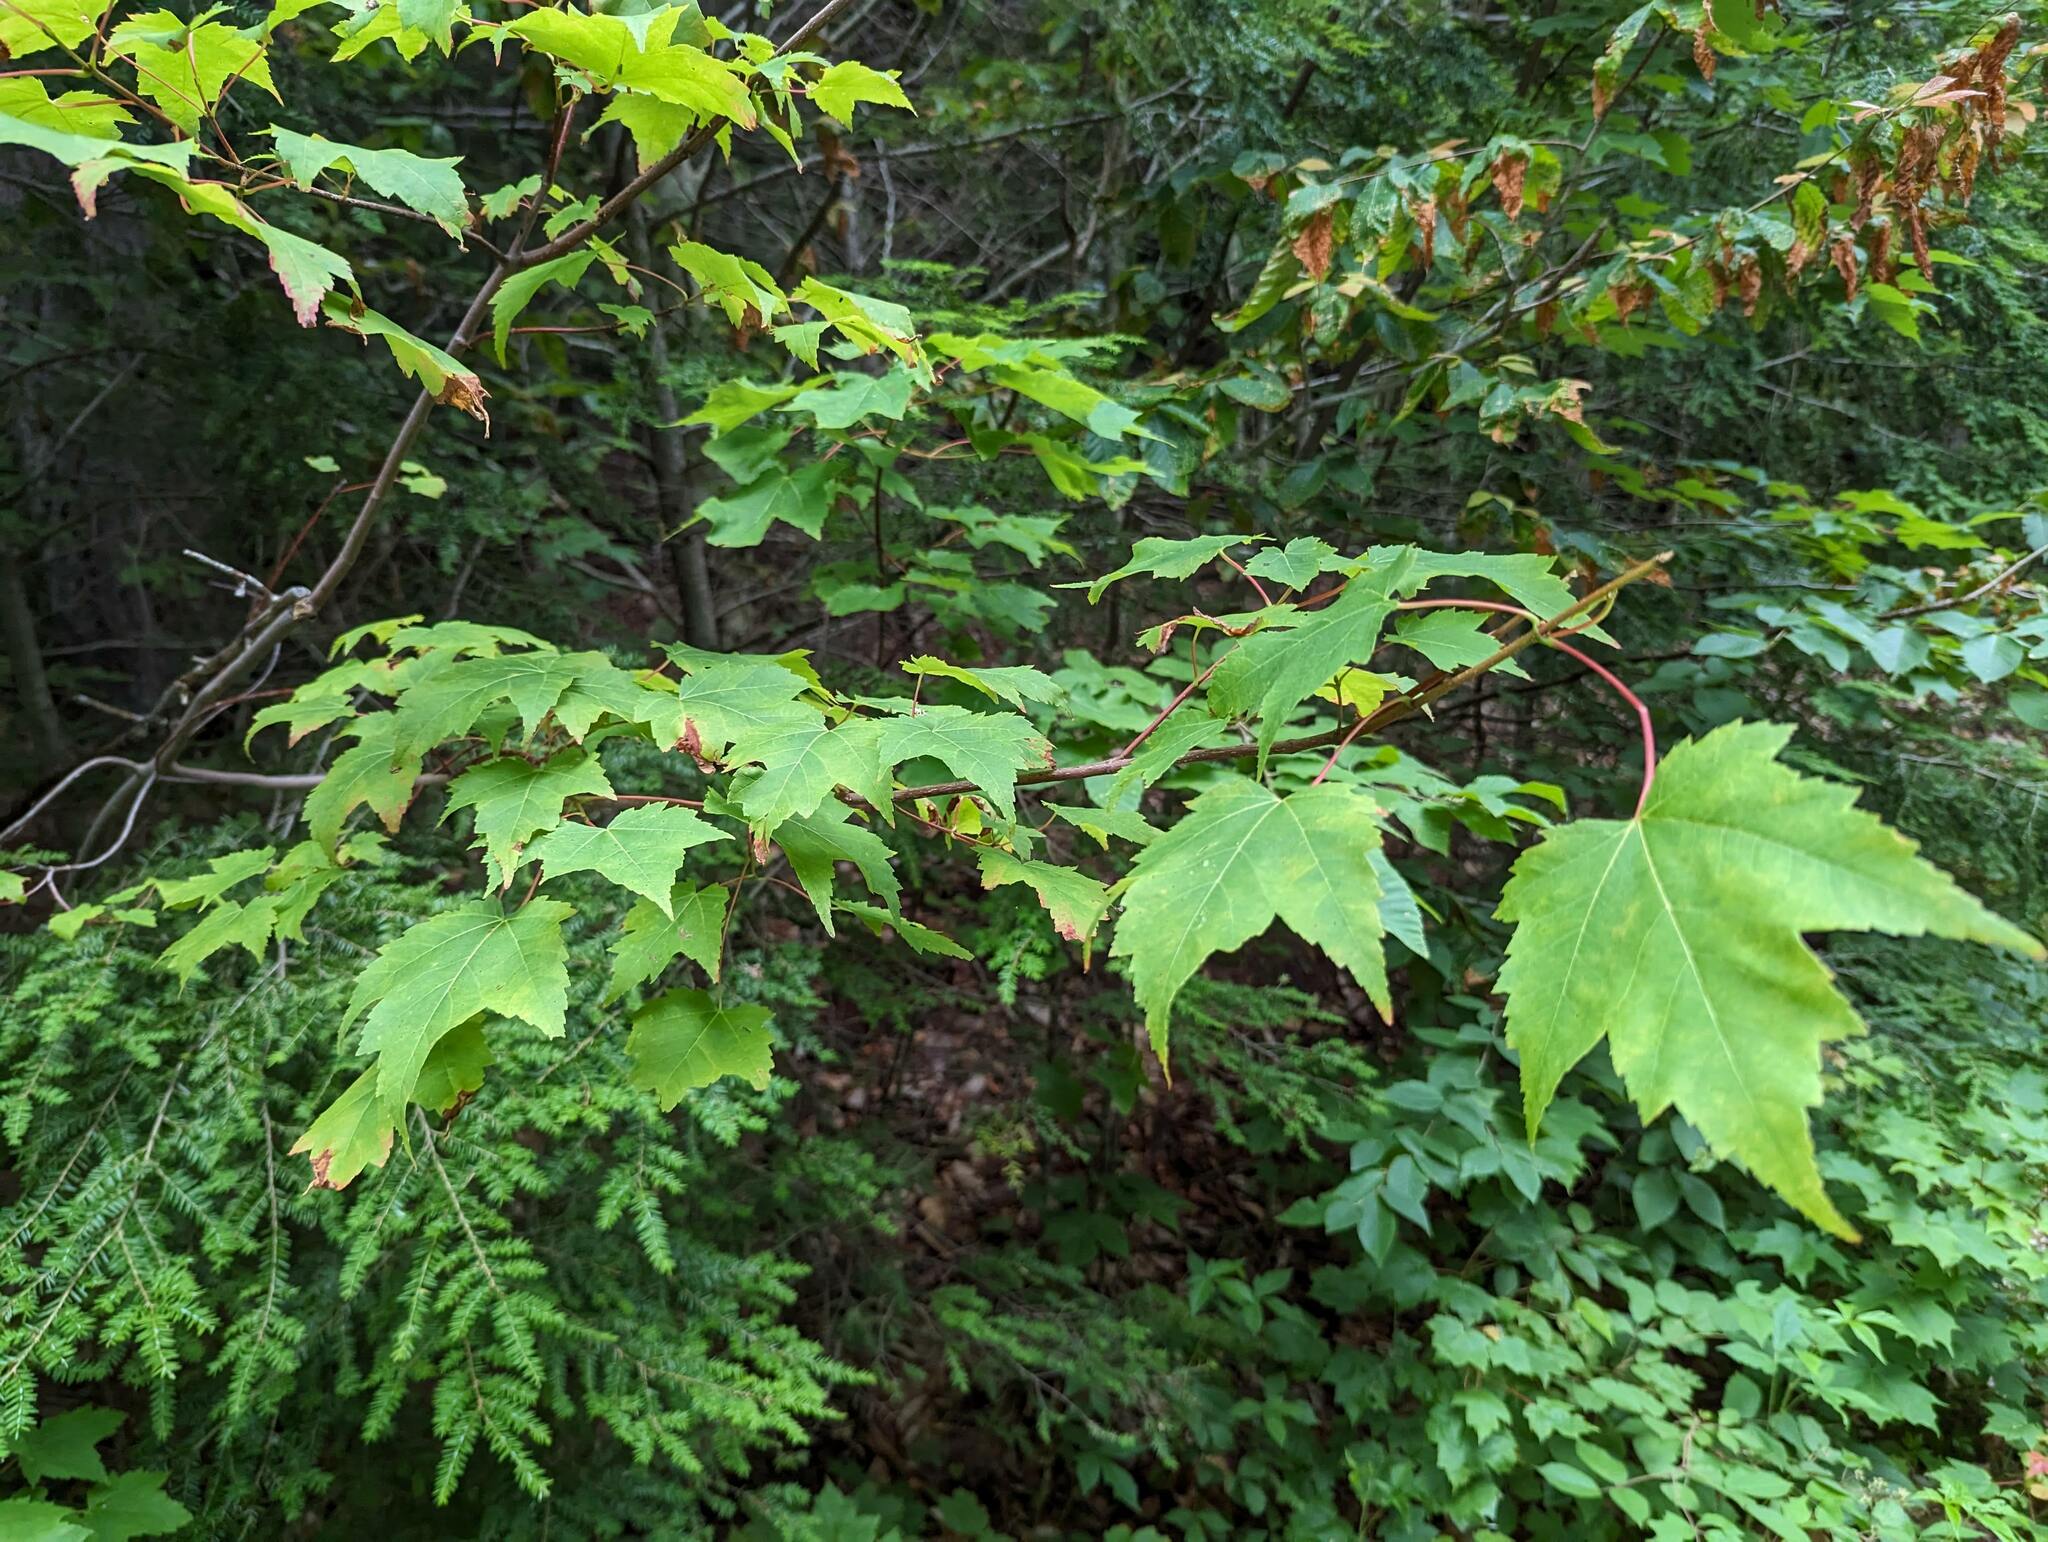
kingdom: Plantae
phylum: Tracheophyta
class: Magnoliopsida
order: Sapindales
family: Sapindaceae
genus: Acer
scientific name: Acer rubrum
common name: Red maple
